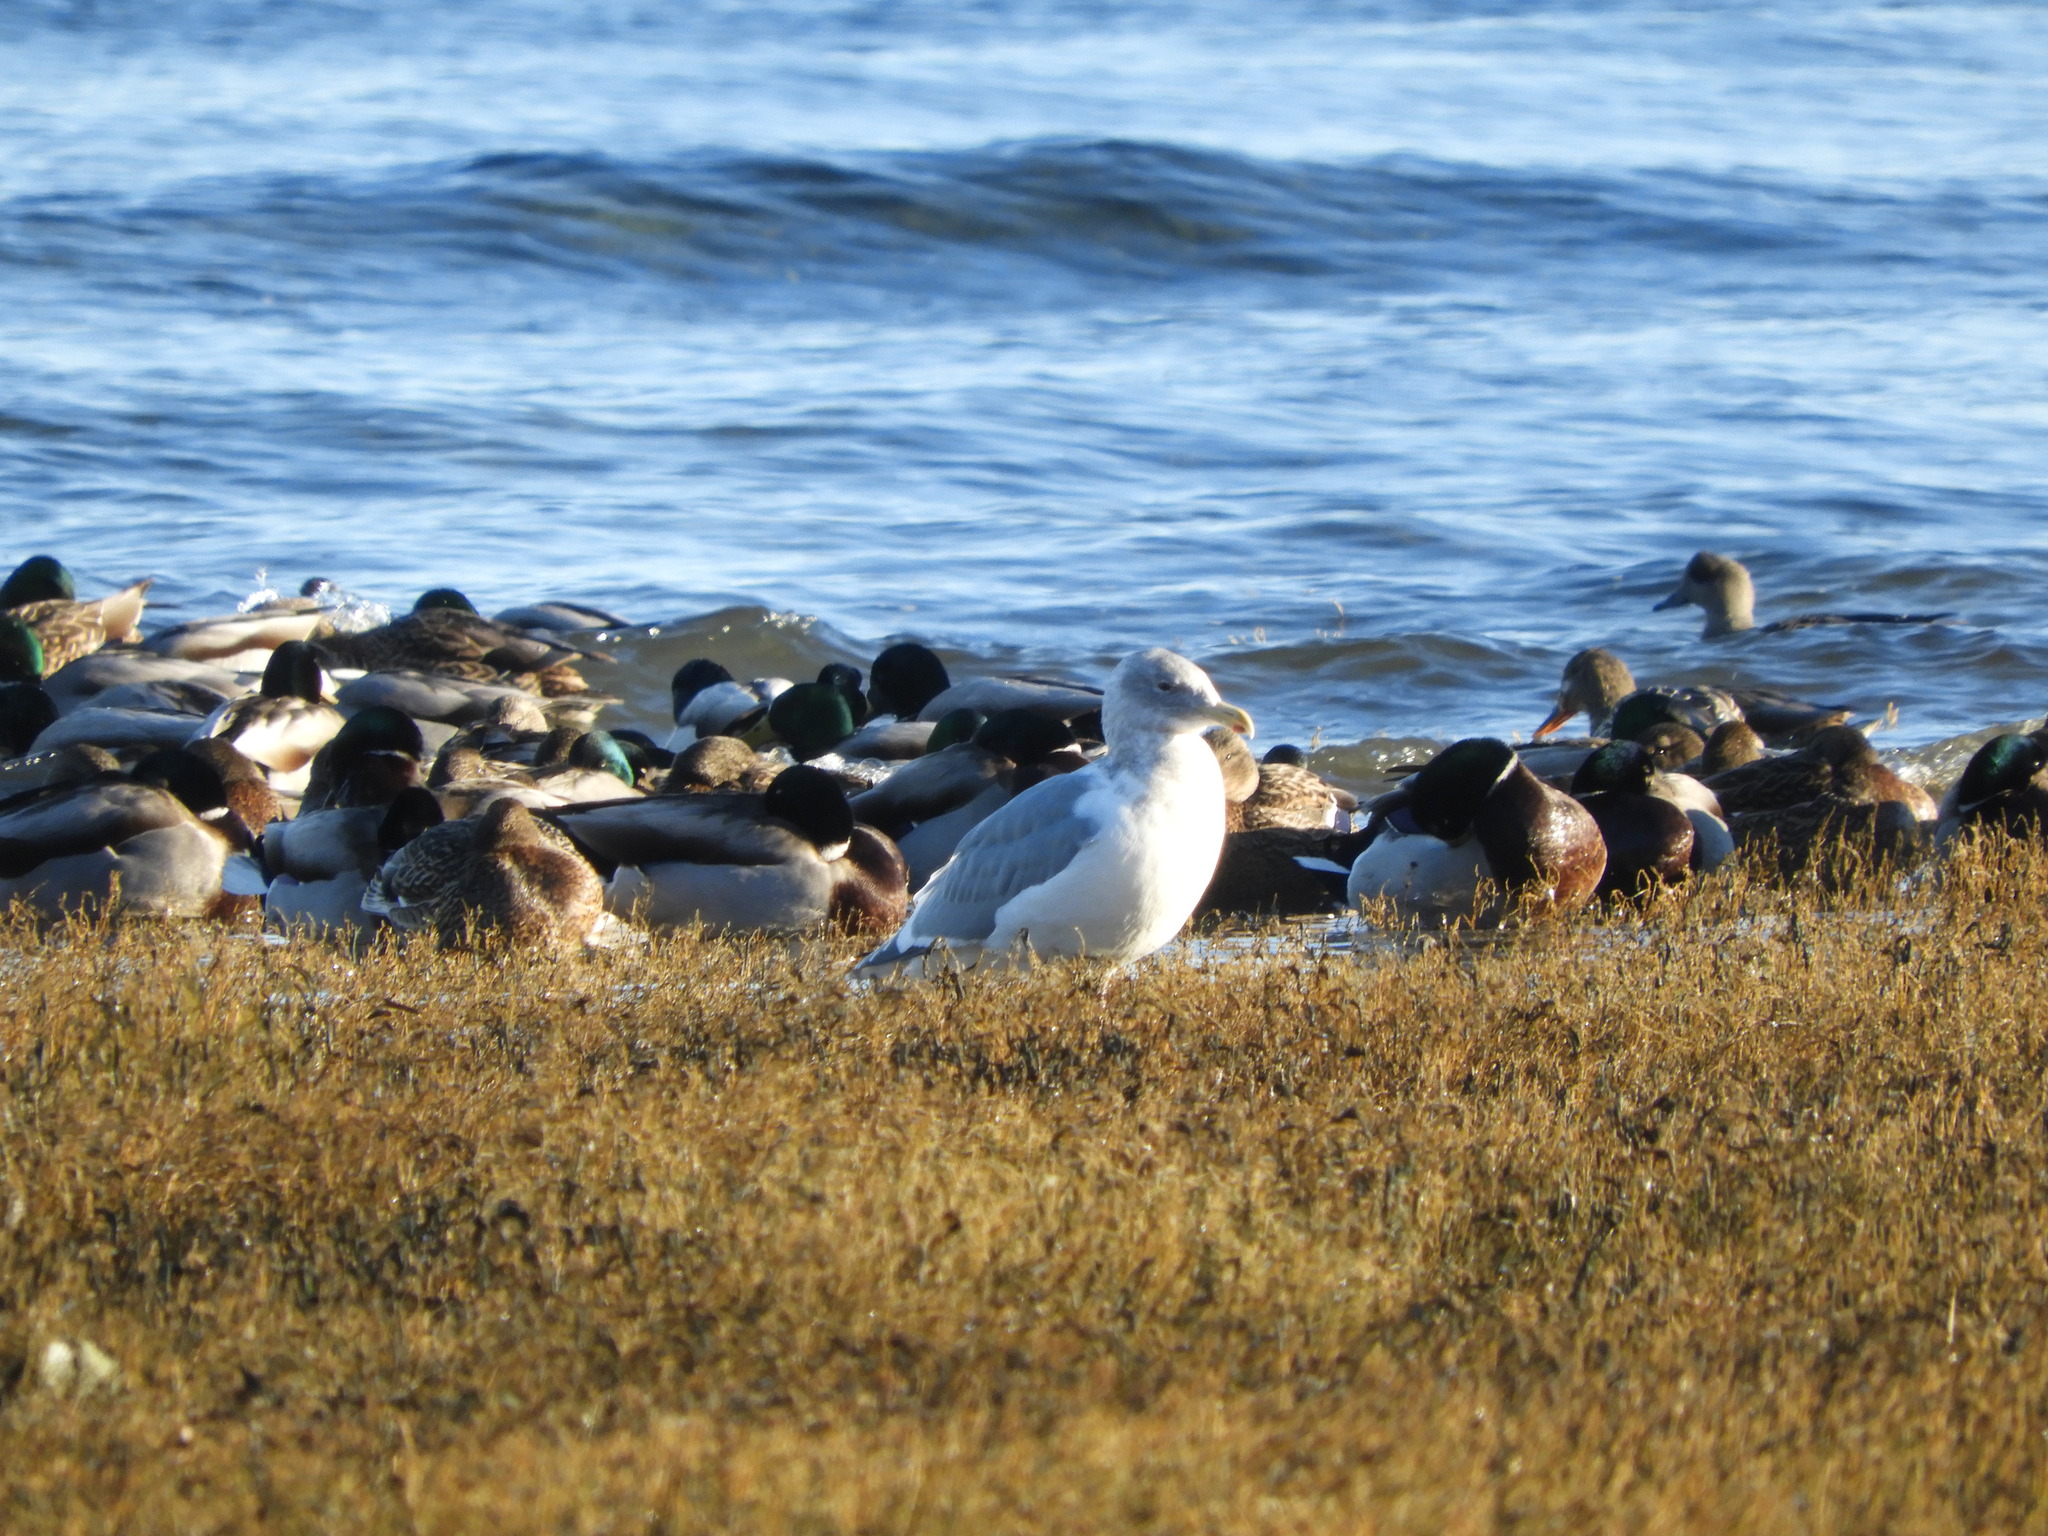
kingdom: Animalia
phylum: Chordata
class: Aves
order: Charadriiformes
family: Laridae
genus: Larus
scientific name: Larus glaucescens
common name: Glaucous-winged gull
